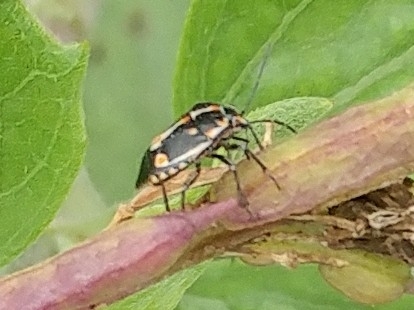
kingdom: Animalia
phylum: Arthropoda
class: Insecta
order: Hemiptera
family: Pentatomidae
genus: Bagrada
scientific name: Bagrada hilaris
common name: Bagrada bug
